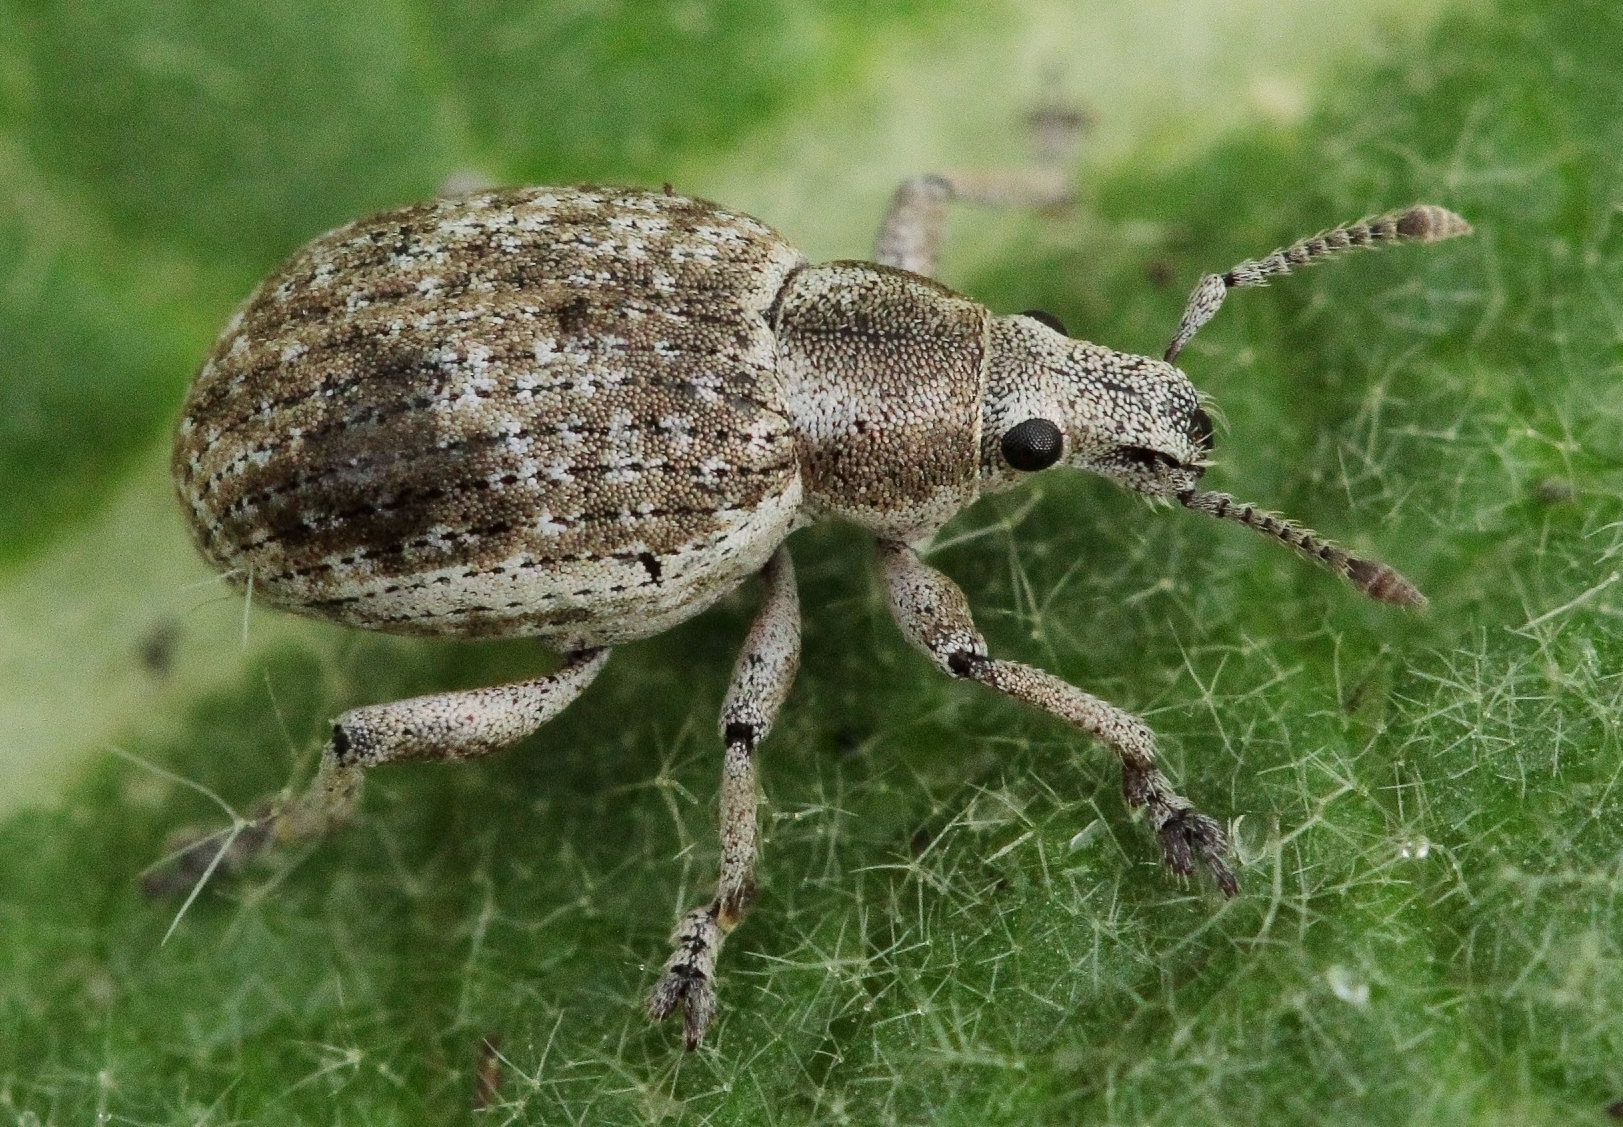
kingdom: Animalia
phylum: Arthropoda
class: Insecta
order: Coleoptera
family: Curculionidae
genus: Attactagenus
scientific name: Attactagenus albinus
